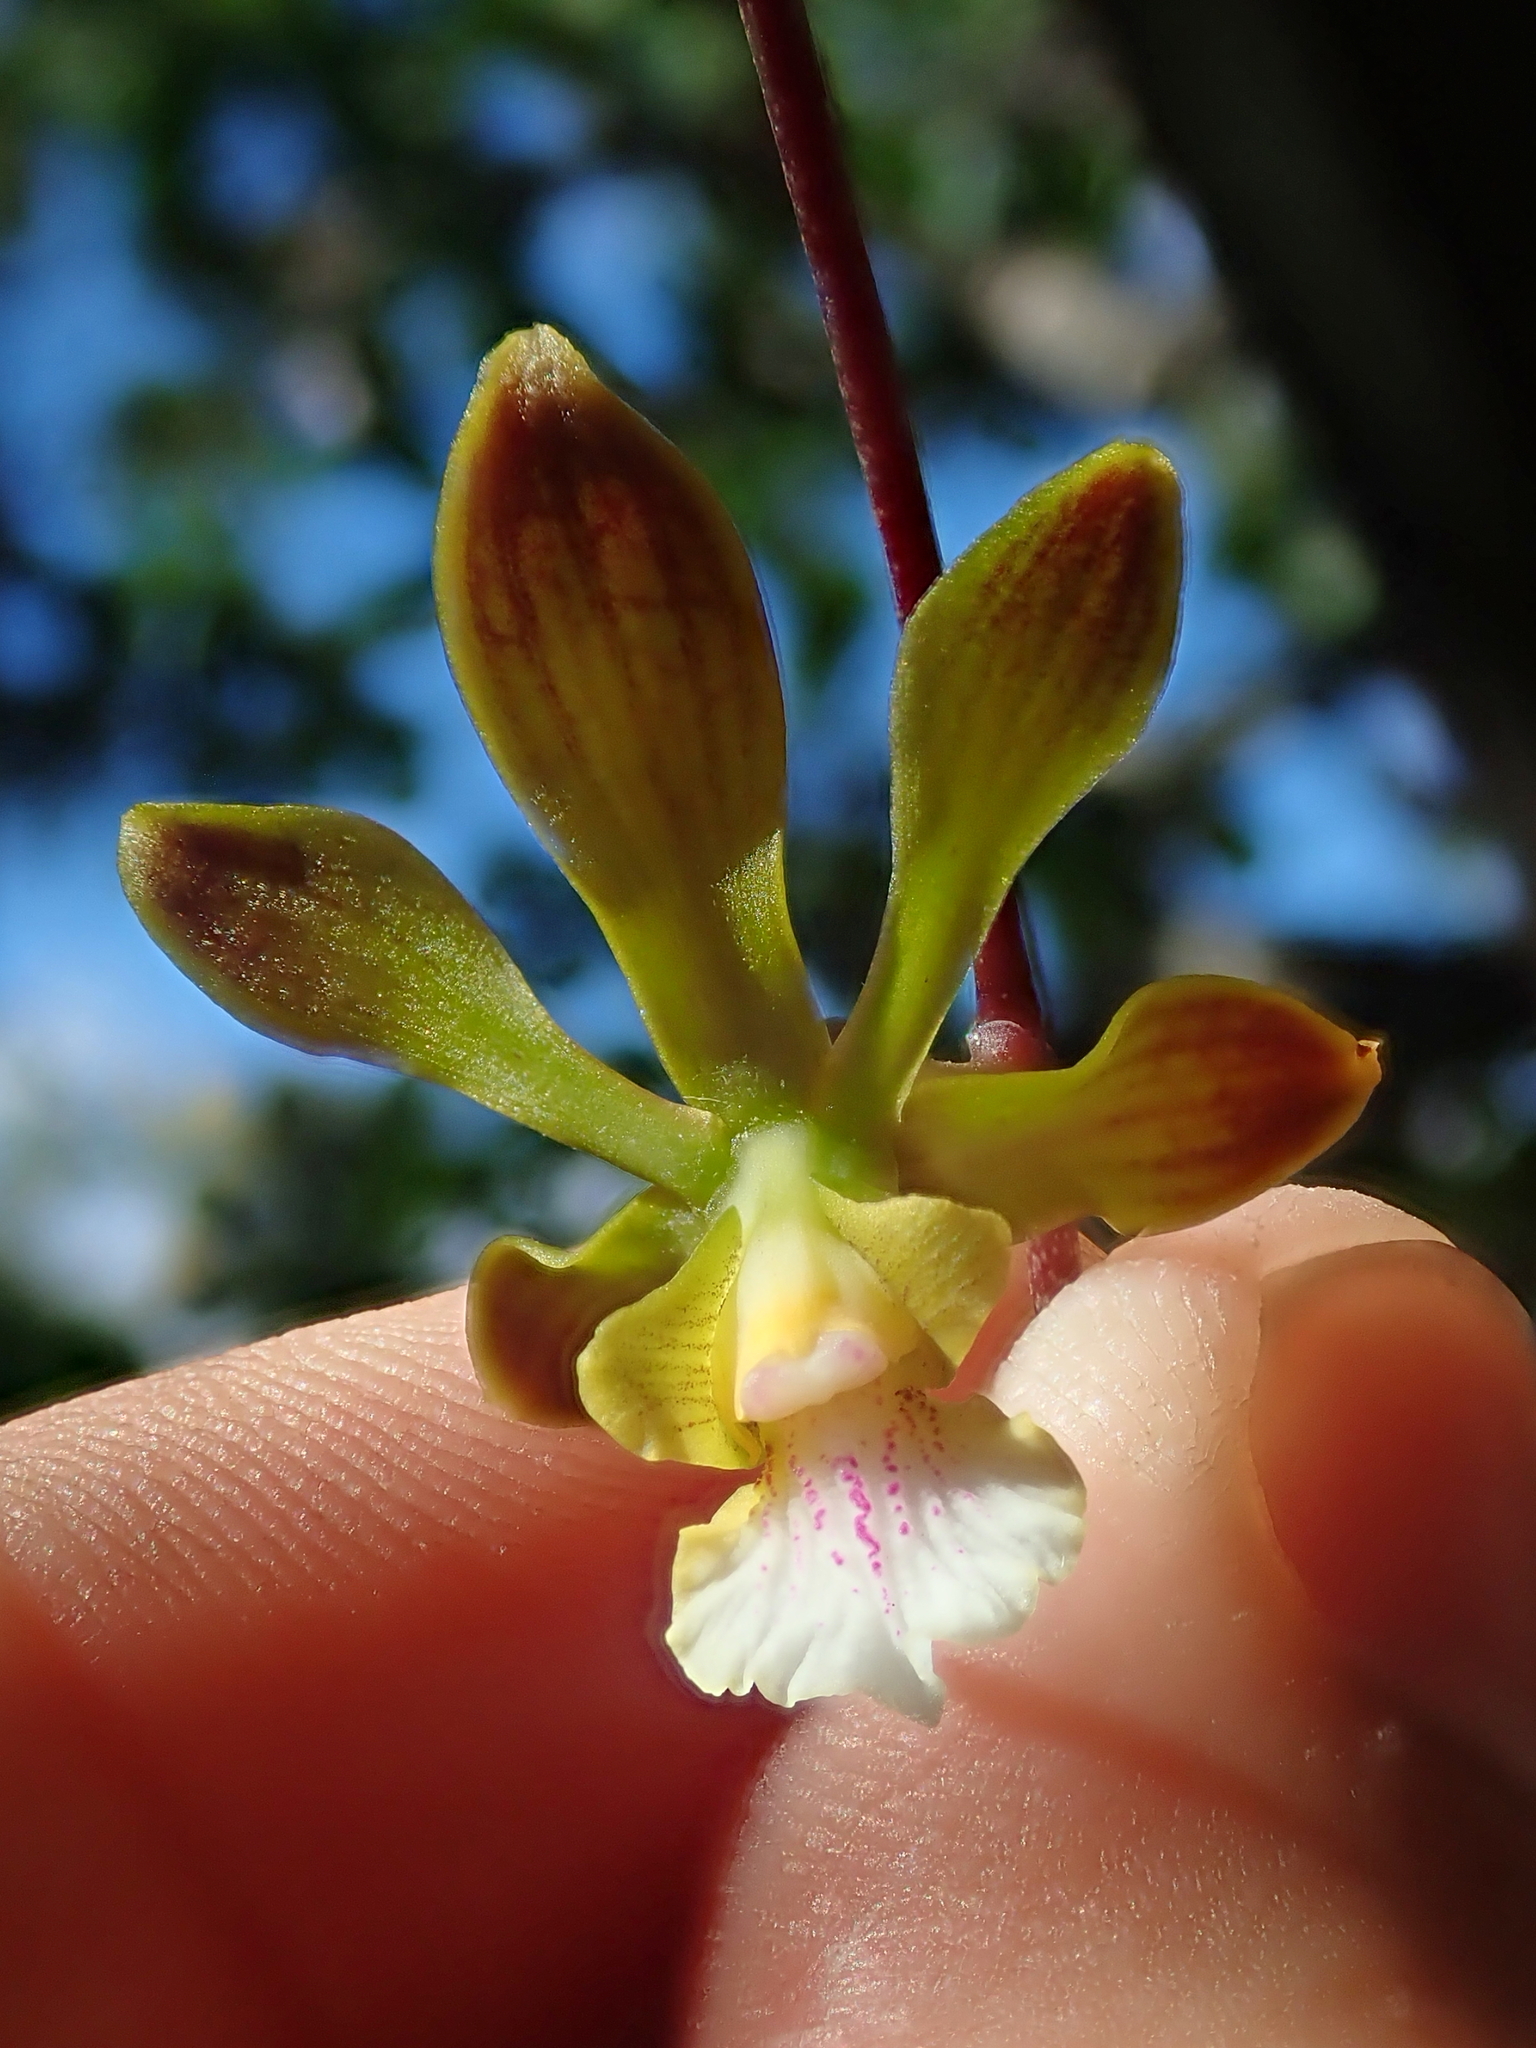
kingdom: Plantae
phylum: Tracheophyta
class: Liliopsida
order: Asparagales
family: Orchidaceae
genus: Encyclia
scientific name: Encyclia gonzalezii
